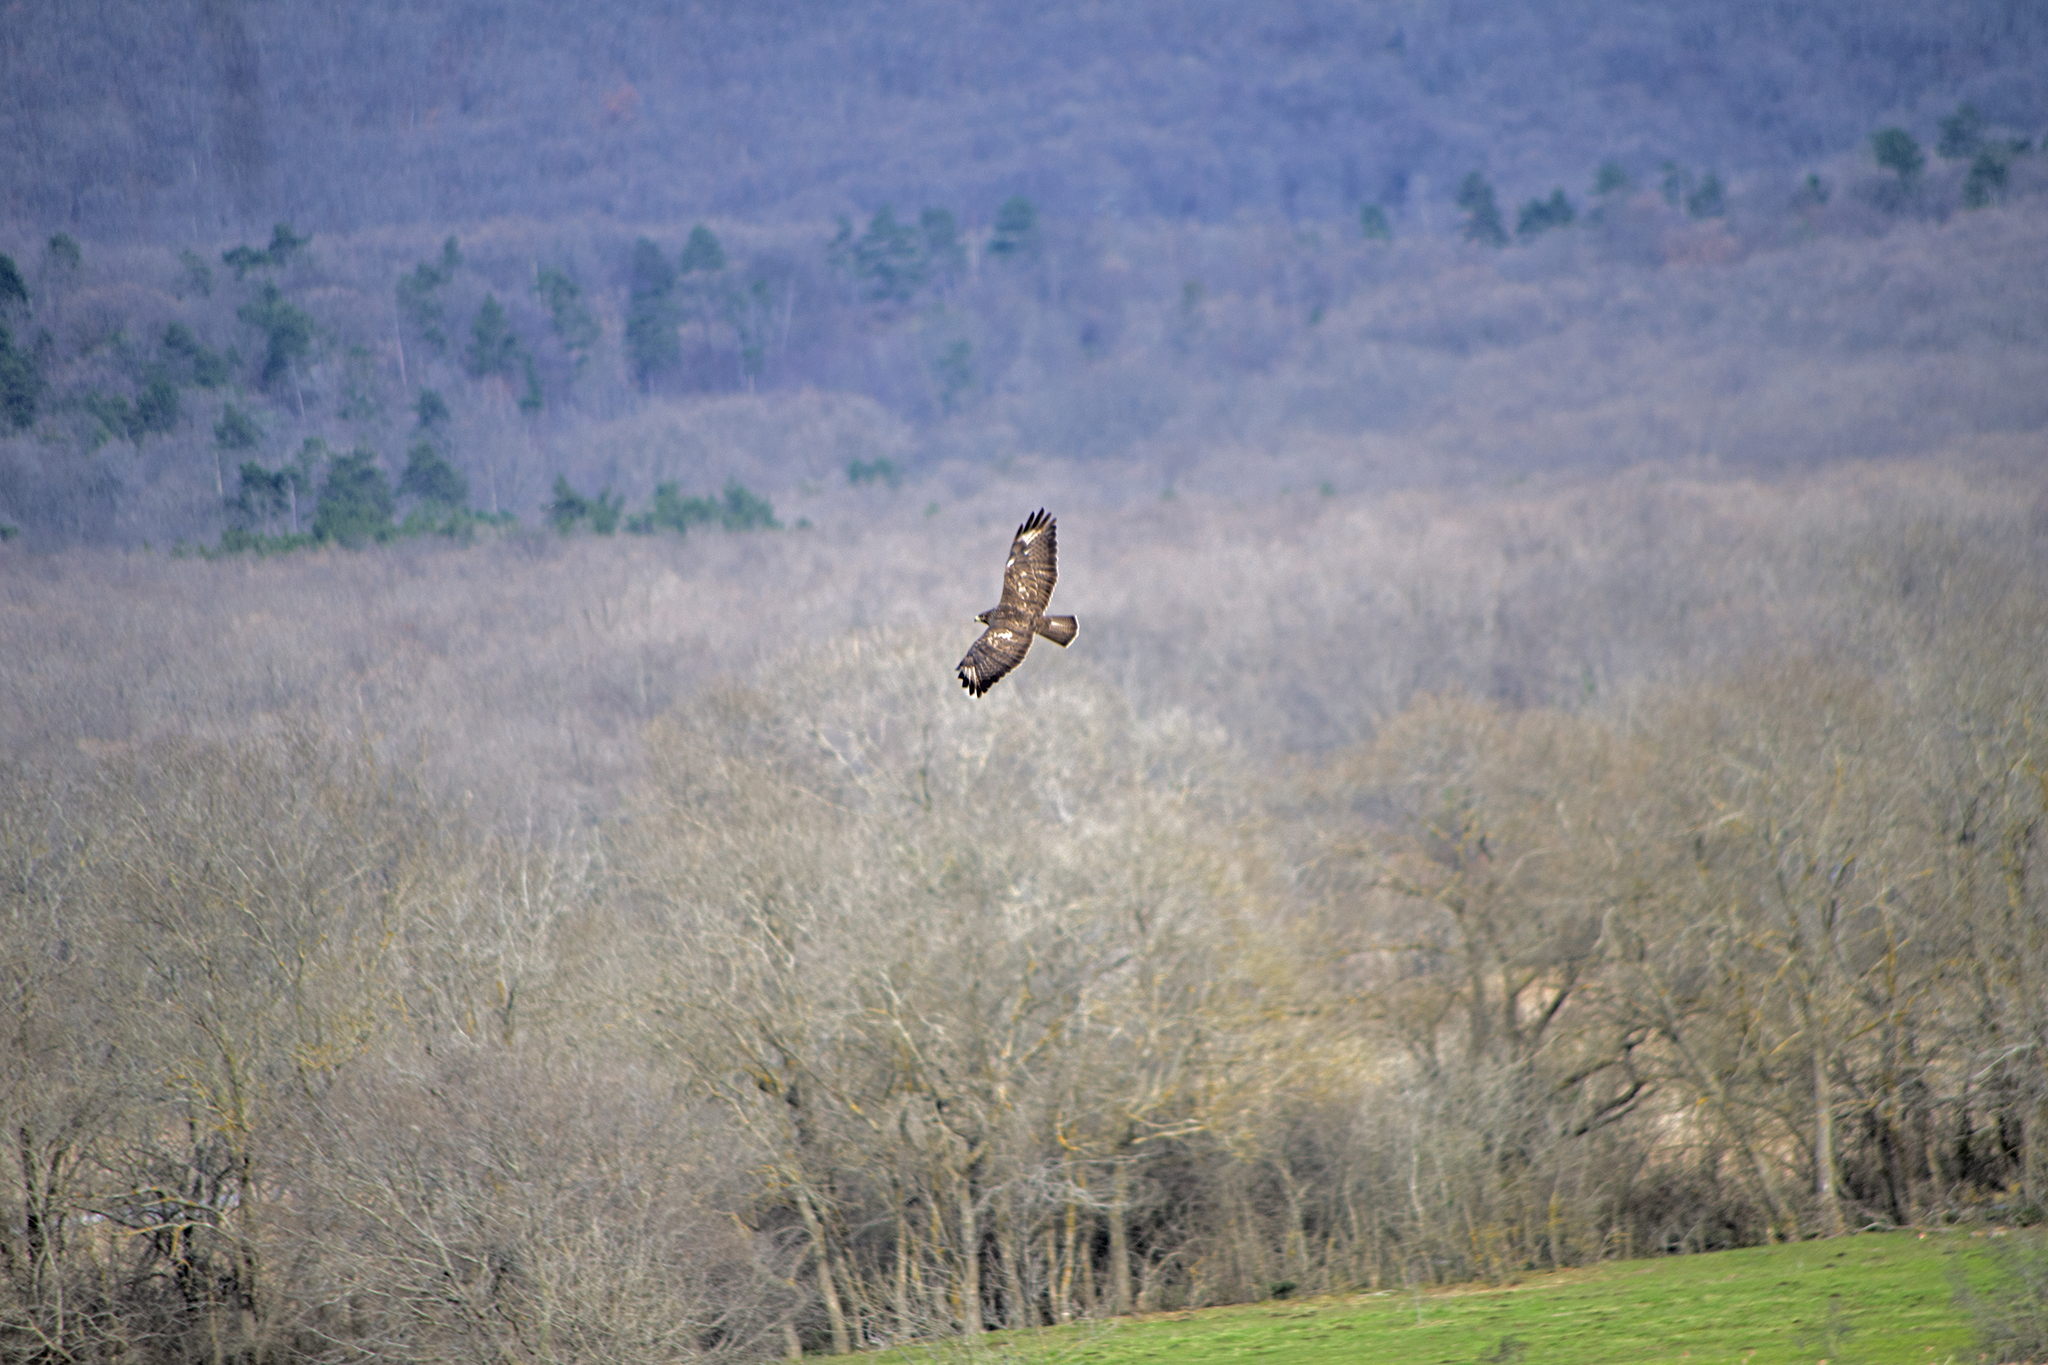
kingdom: Animalia
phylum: Chordata
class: Aves
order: Accipitriformes
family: Accipitridae
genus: Buteo
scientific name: Buteo buteo
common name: Common buzzard
